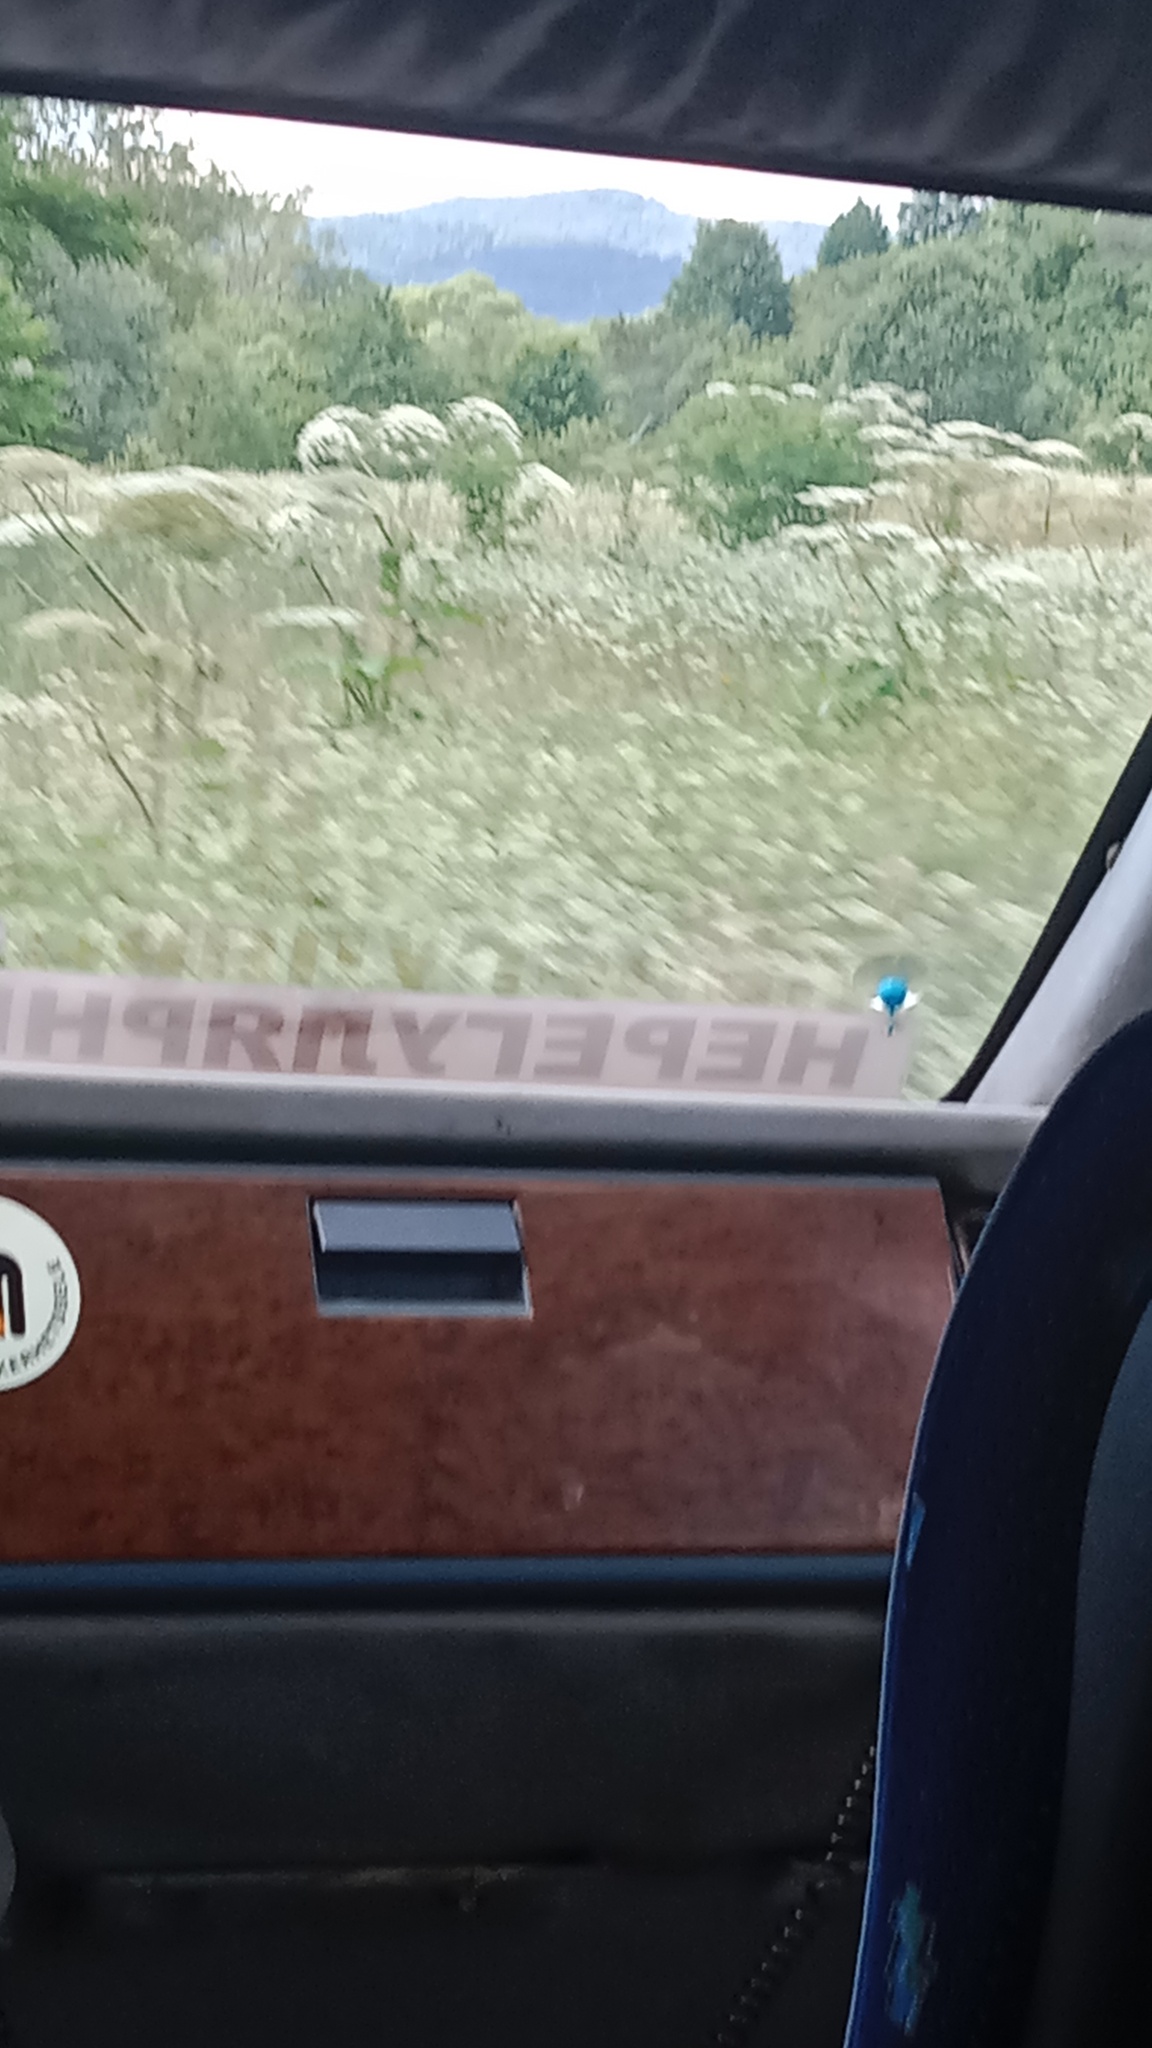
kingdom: Plantae
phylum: Tracheophyta
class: Magnoliopsida
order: Apiales
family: Apiaceae
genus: Heracleum
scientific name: Heracleum sosnowskyi
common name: Sosnowsky's hogweed
